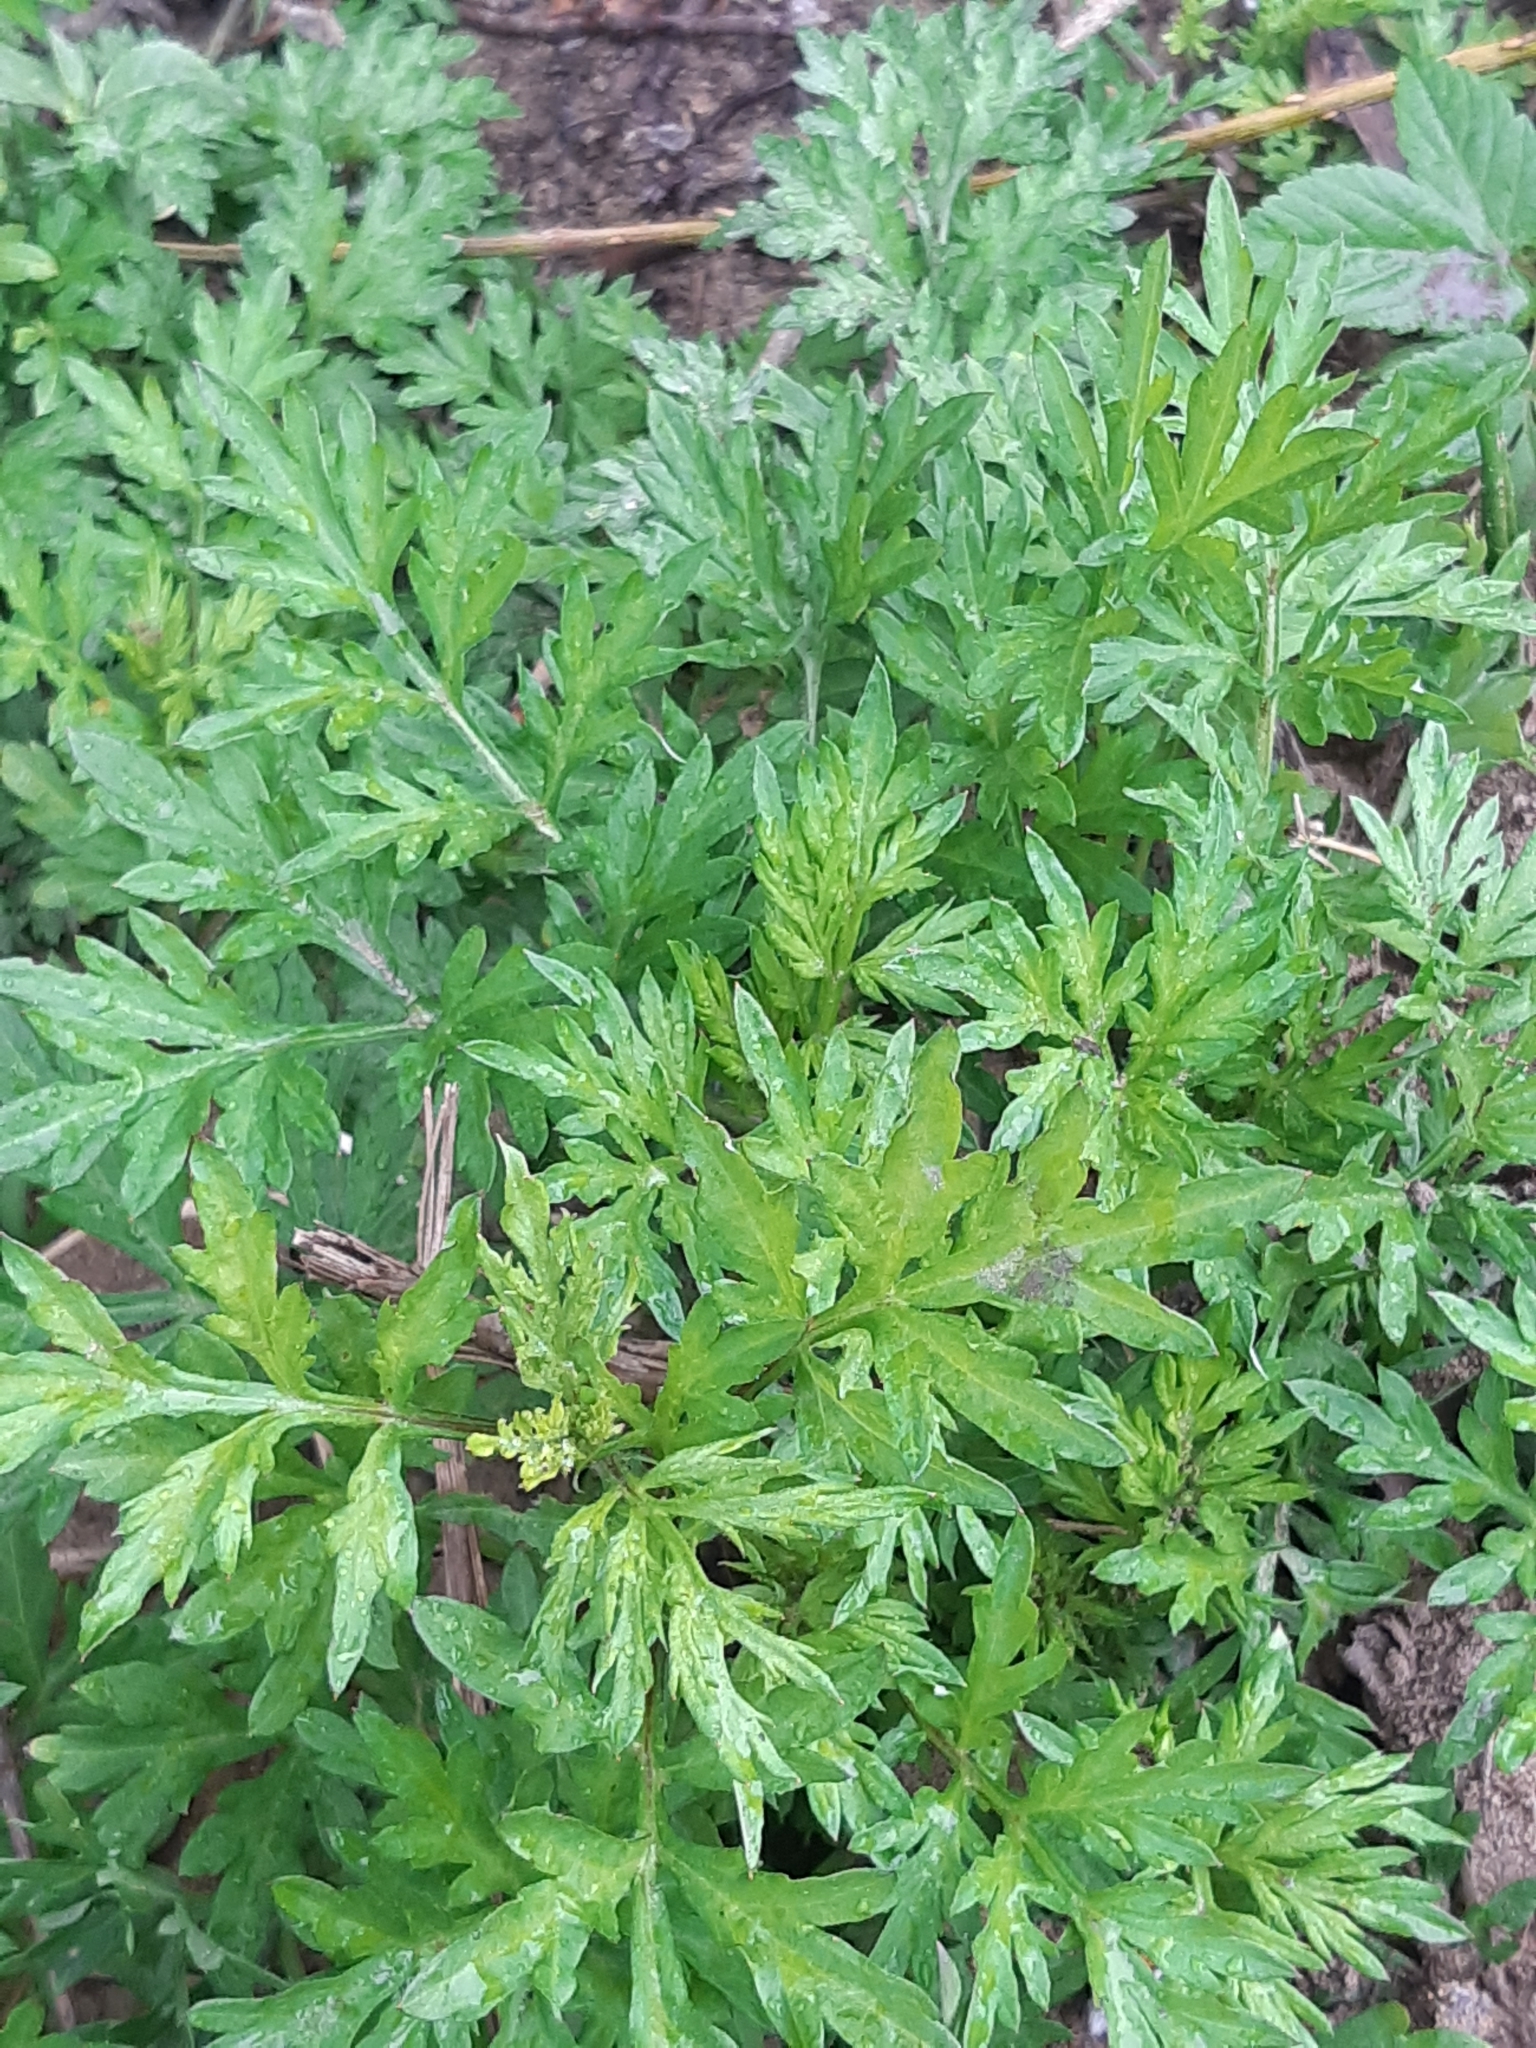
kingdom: Plantae
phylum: Tracheophyta
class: Magnoliopsida
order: Asterales
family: Asteraceae
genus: Artemisia
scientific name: Artemisia vulgaris
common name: Mugwort
